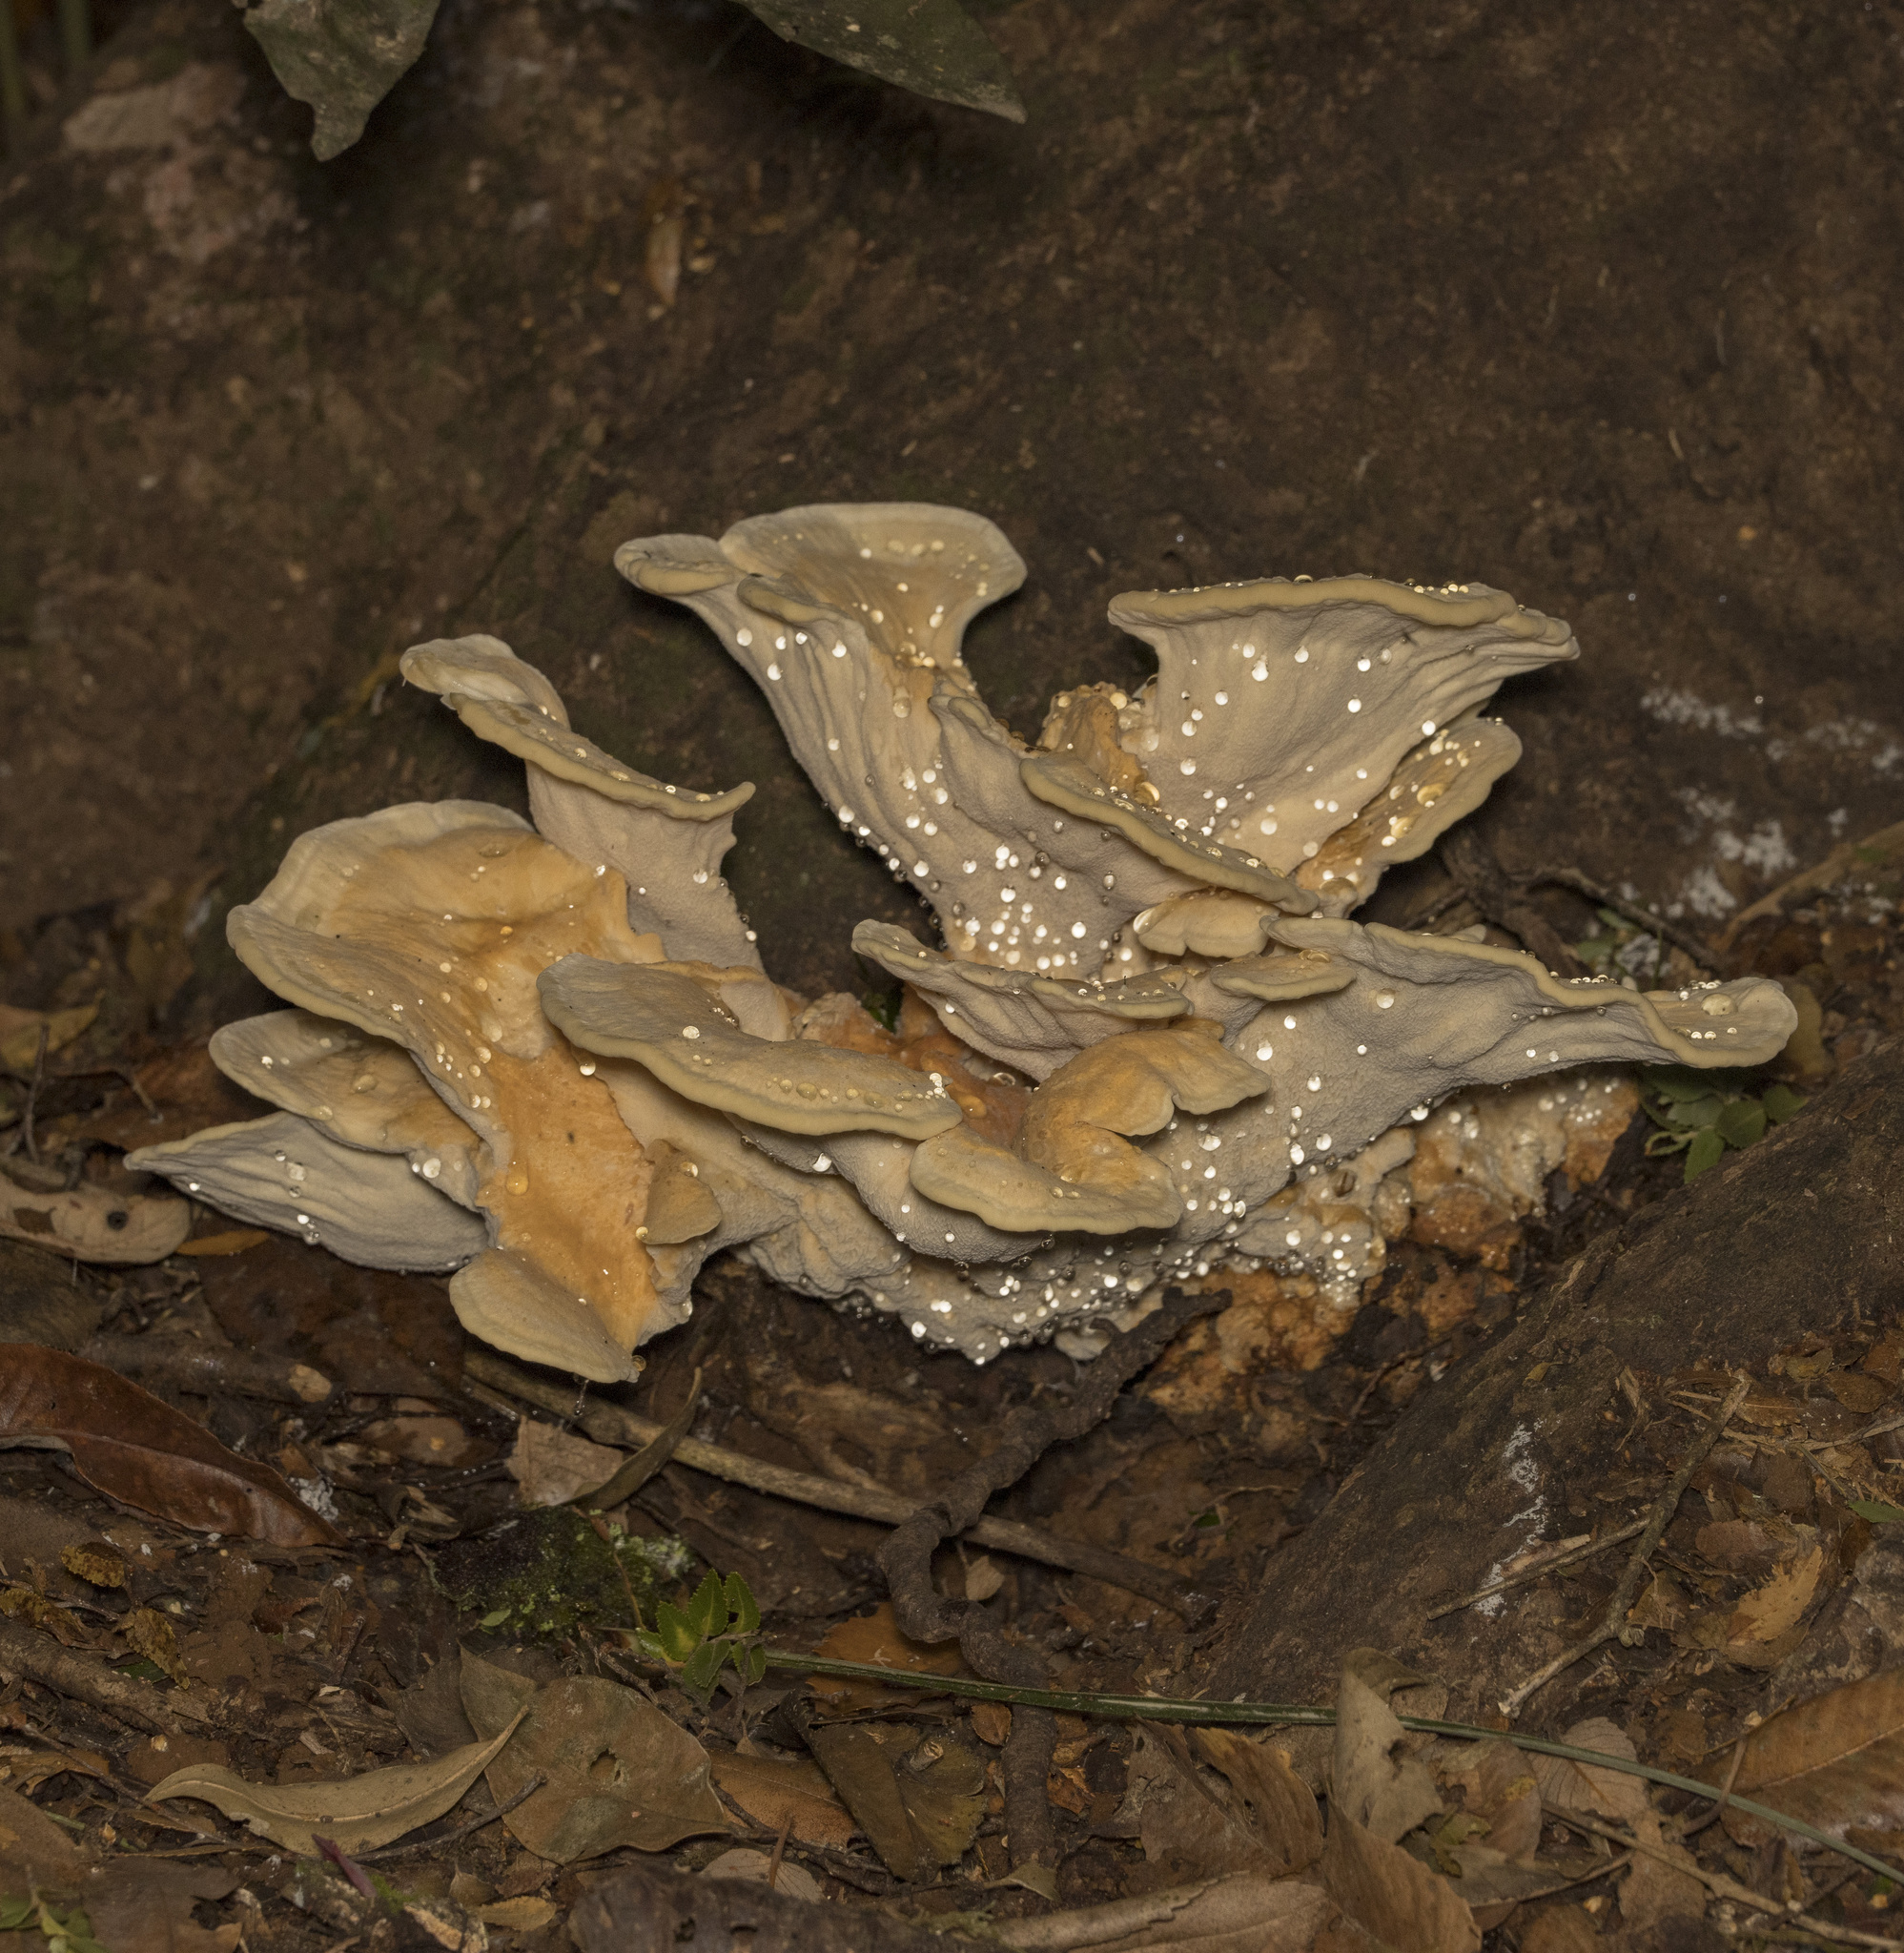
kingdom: Fungi
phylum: Basidiomycota
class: Agaricomycetes
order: Russulales
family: Bondarzewiaceae
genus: Bondarzewia
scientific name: Bondarzewia guaitecasensis
